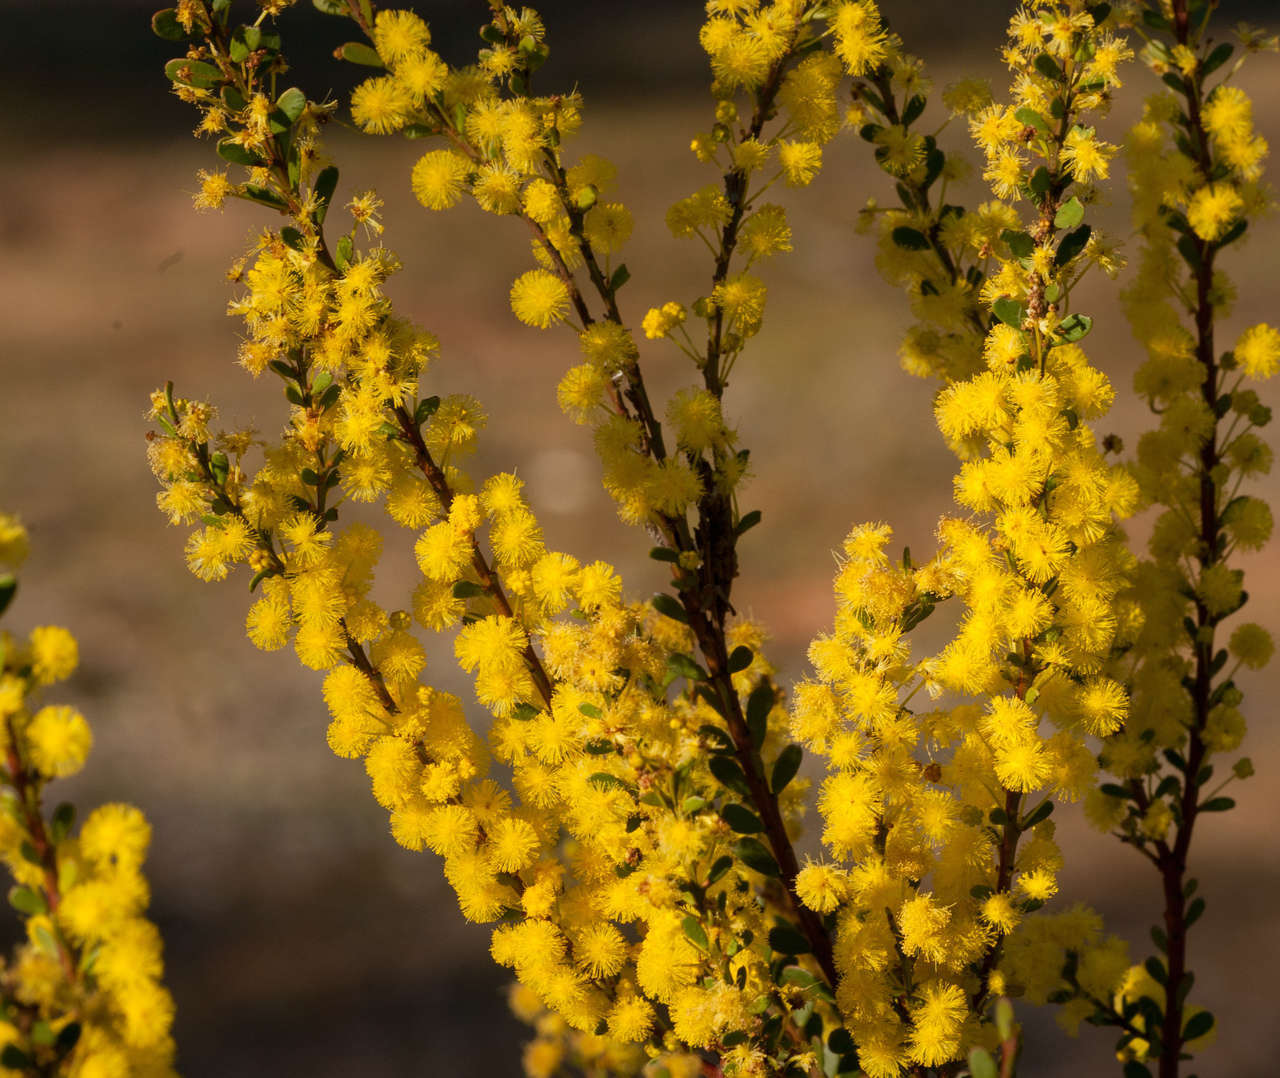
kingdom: Plantae
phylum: Tracheophyta
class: Magnoliopsida
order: Fabales
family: Fabaceae
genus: Acacia
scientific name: Acacia acinacea
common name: Gold-dust acacia
